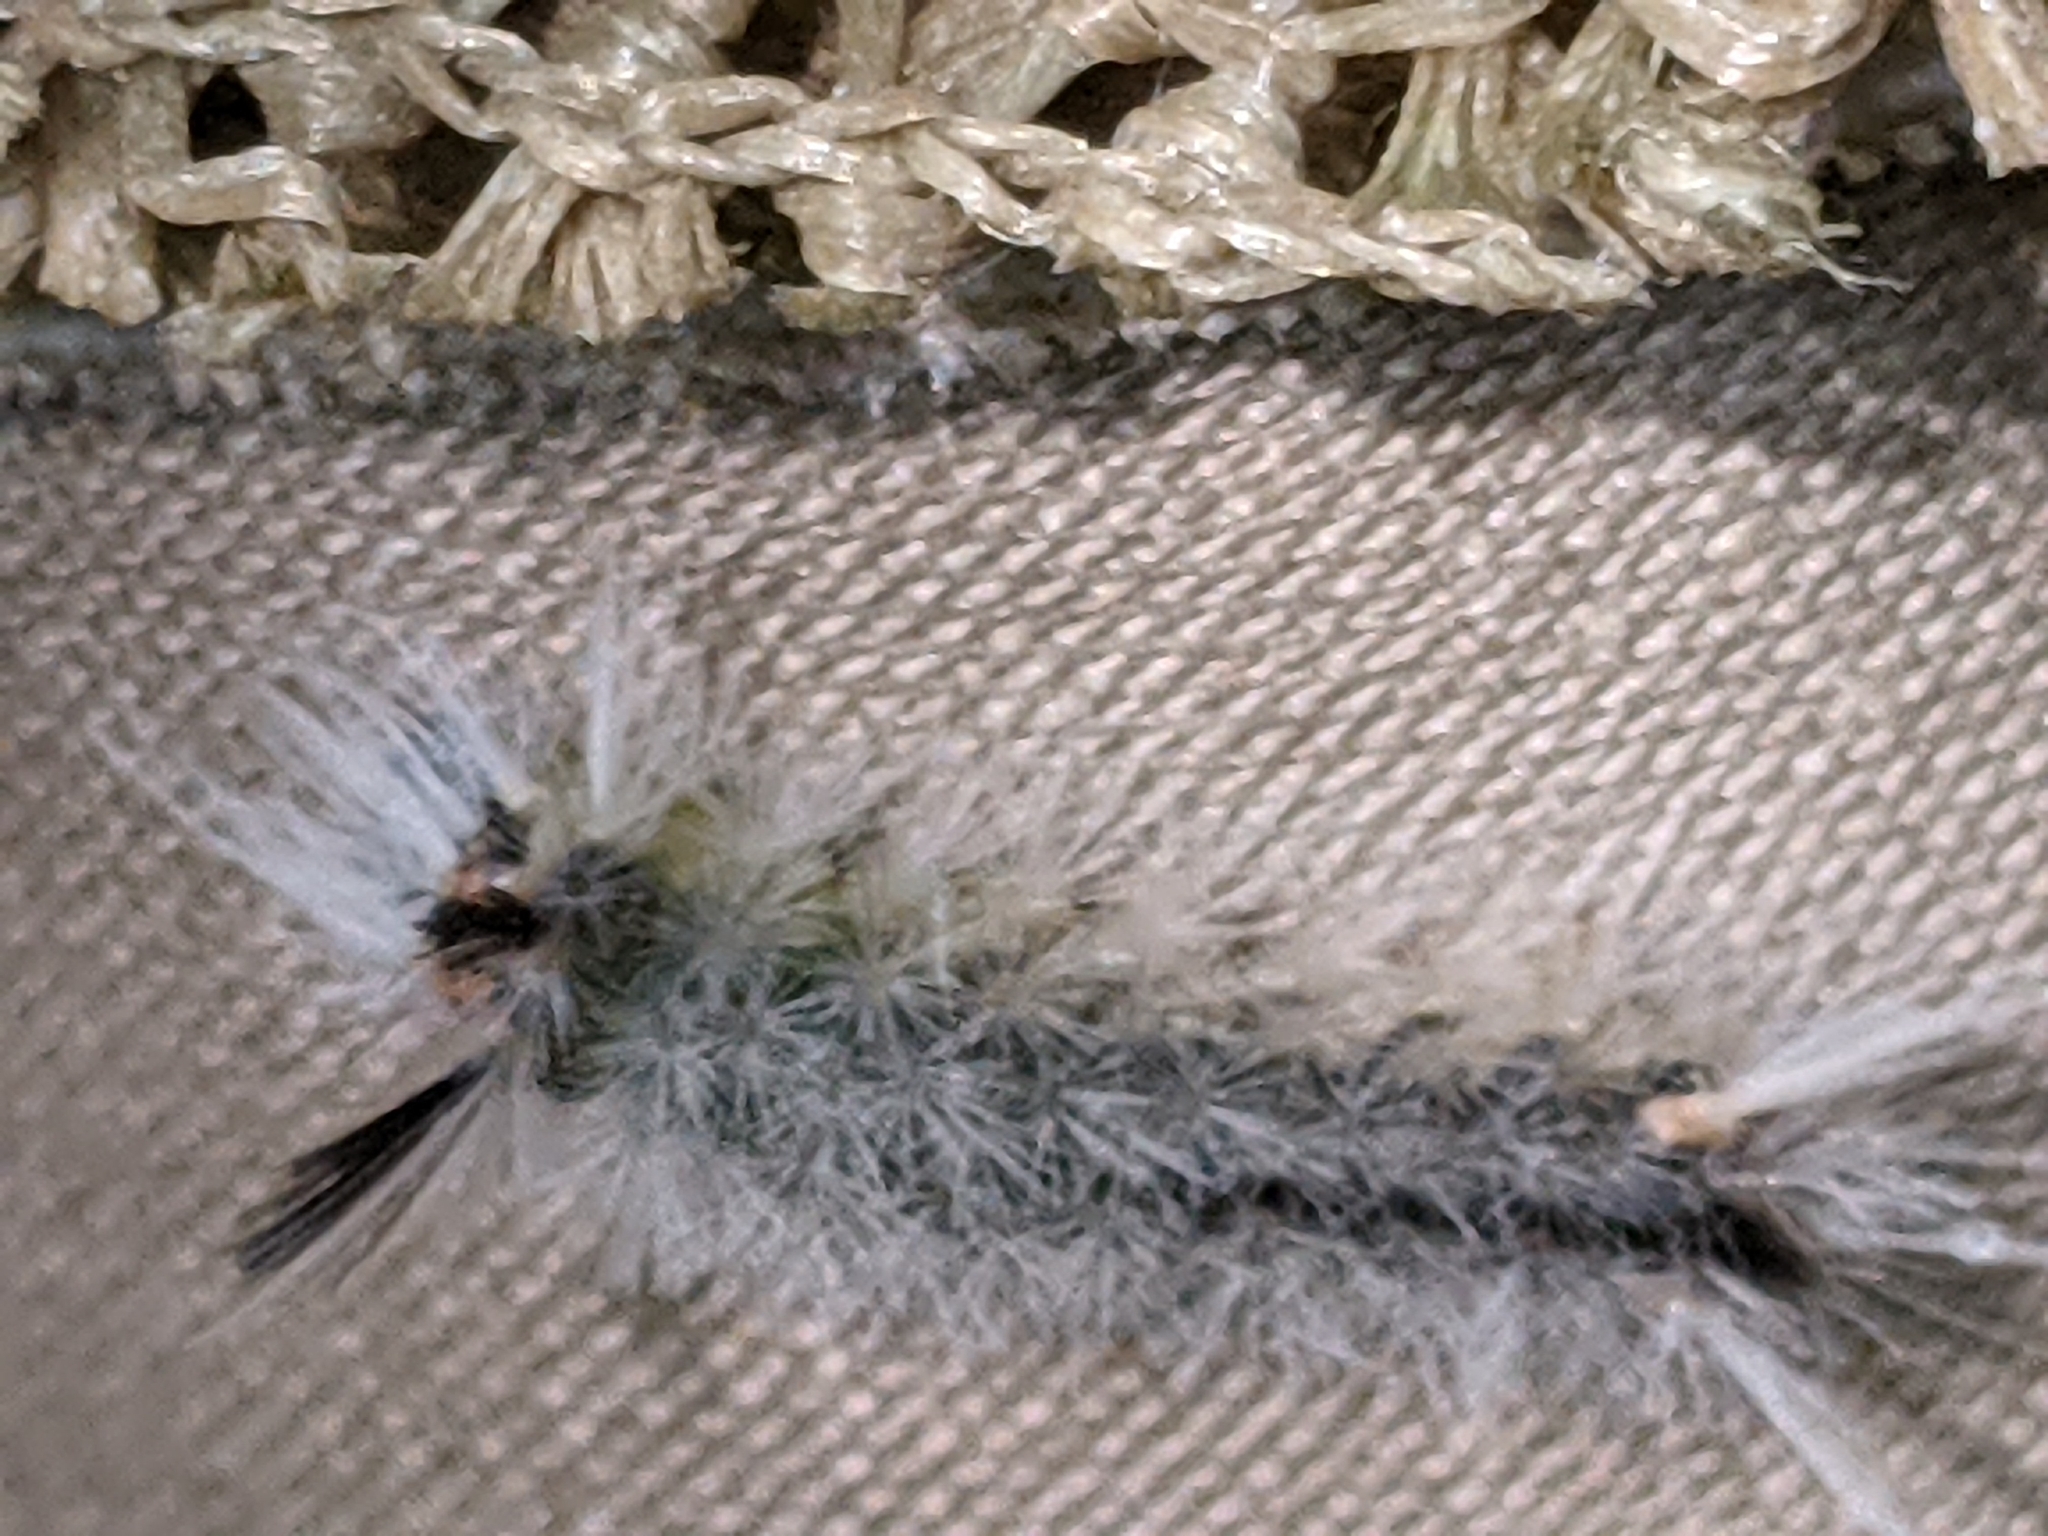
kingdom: Animalia
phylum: Arthropoda
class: Insecta
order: Lepidoptera
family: Erebidae
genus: Halysidota
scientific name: Halysidota tessellaris
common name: Banded tussock moth
